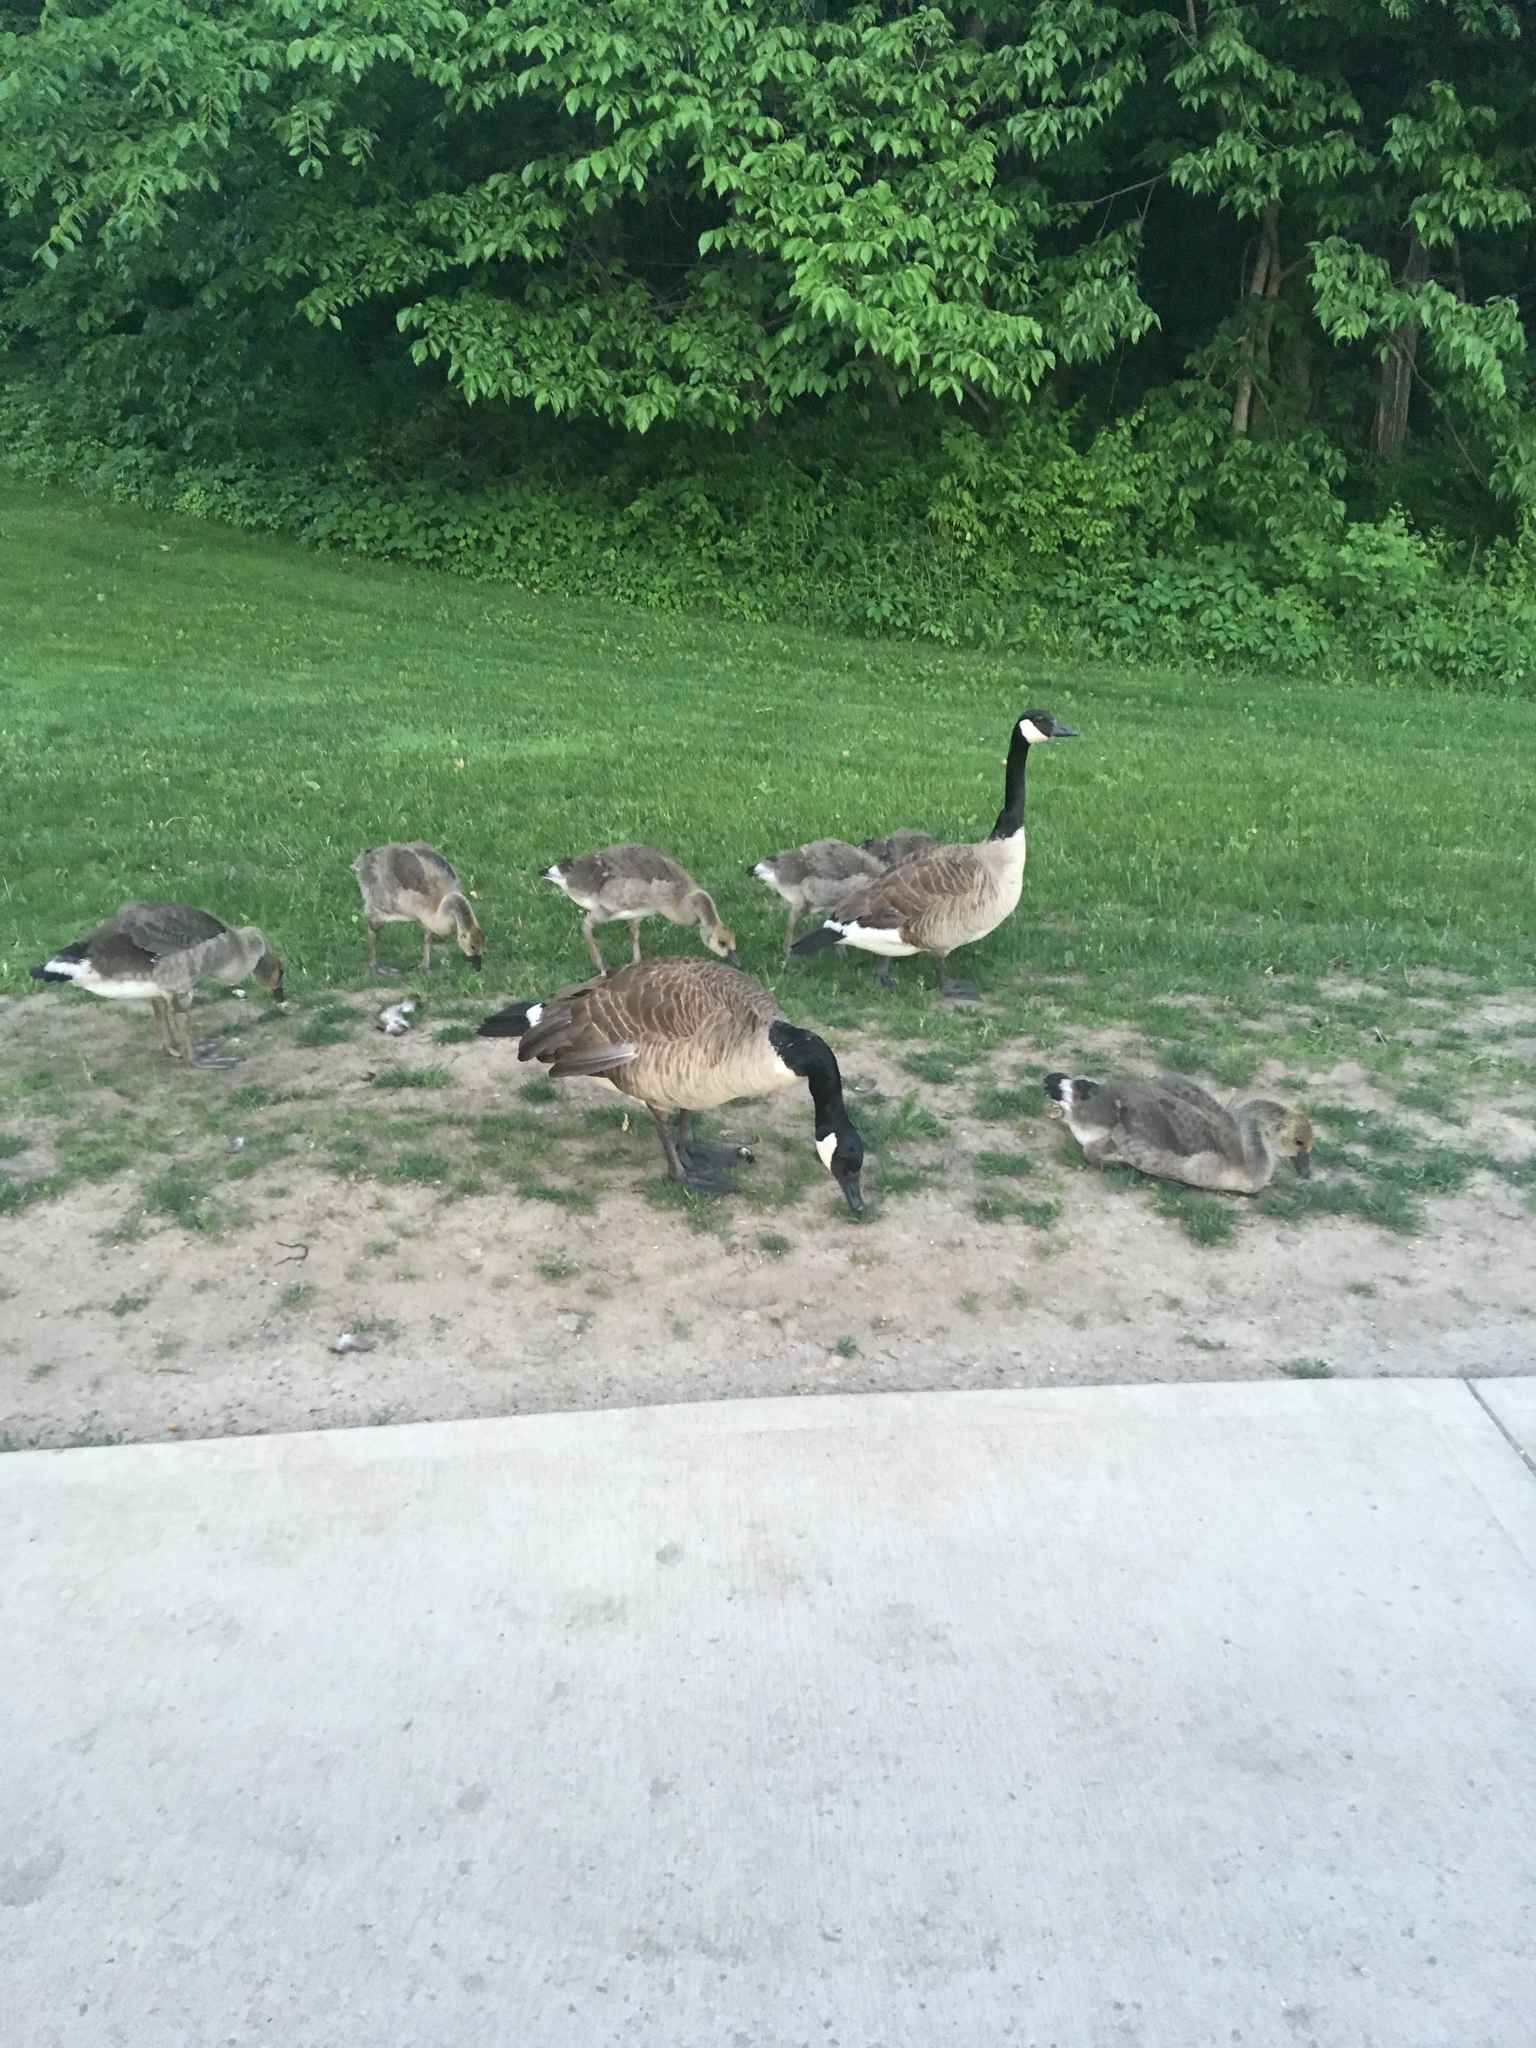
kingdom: Animalia
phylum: Chordata
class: Aves
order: Anseriformes
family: Anatidae
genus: Branta
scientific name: Branta canadensis
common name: Canada goose
